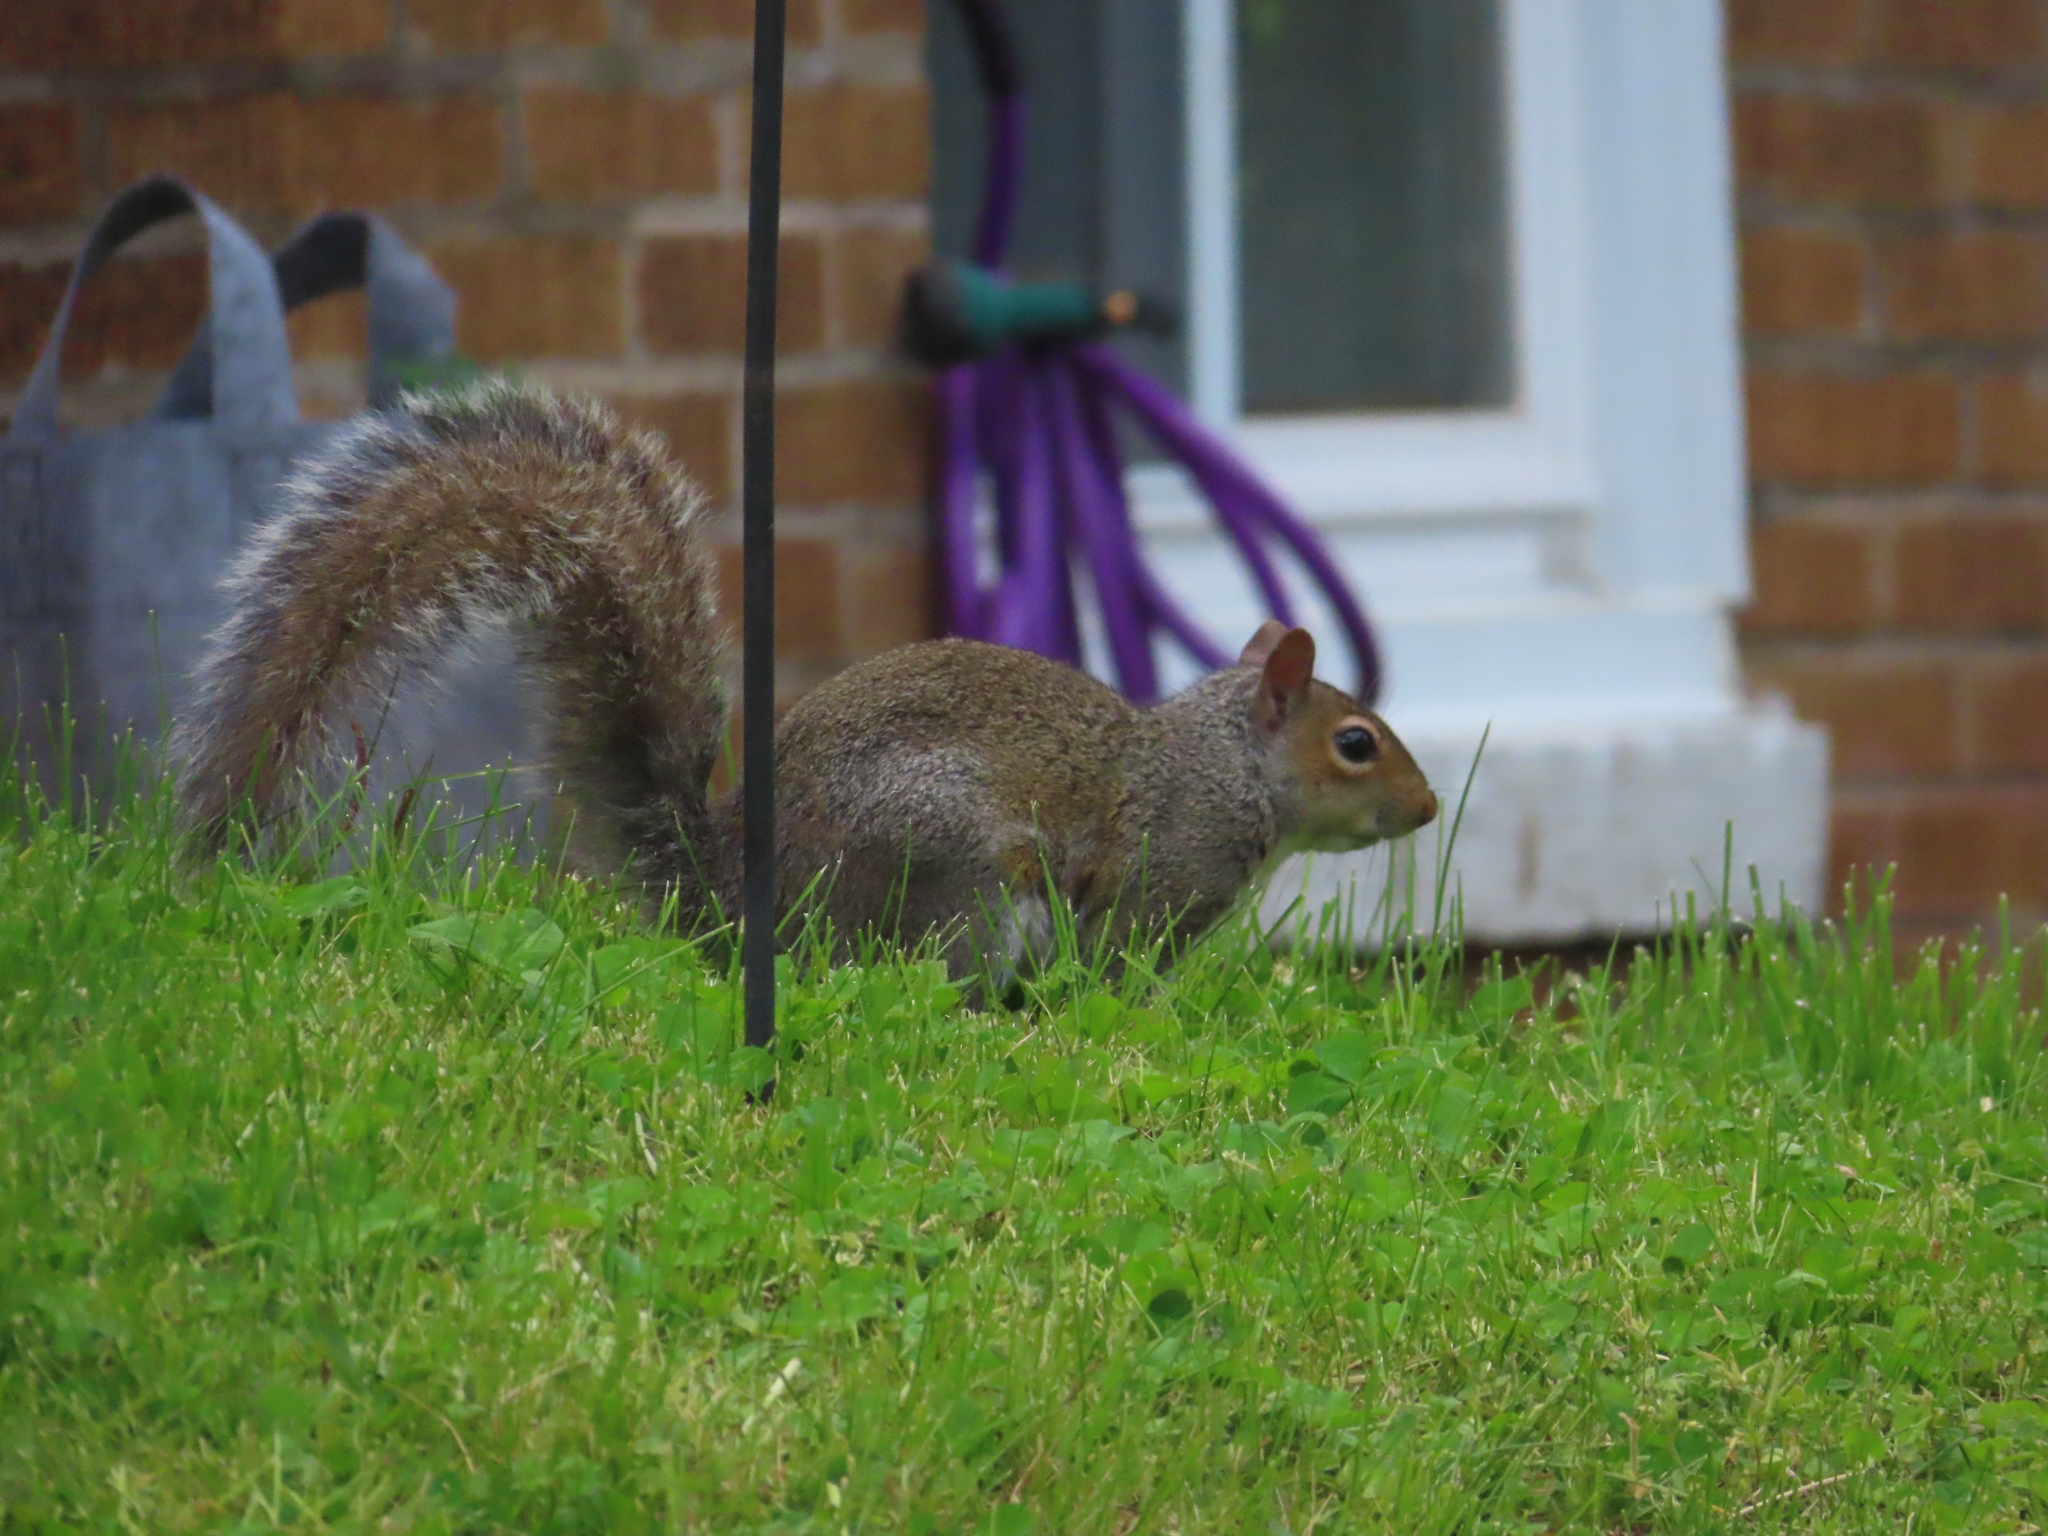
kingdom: Animalia
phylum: Chordata
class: Mammalia
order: Rodentia
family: Sciuridae
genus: Sciurus
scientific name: Sciurus carolinensis
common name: Eastern gray squirrel
